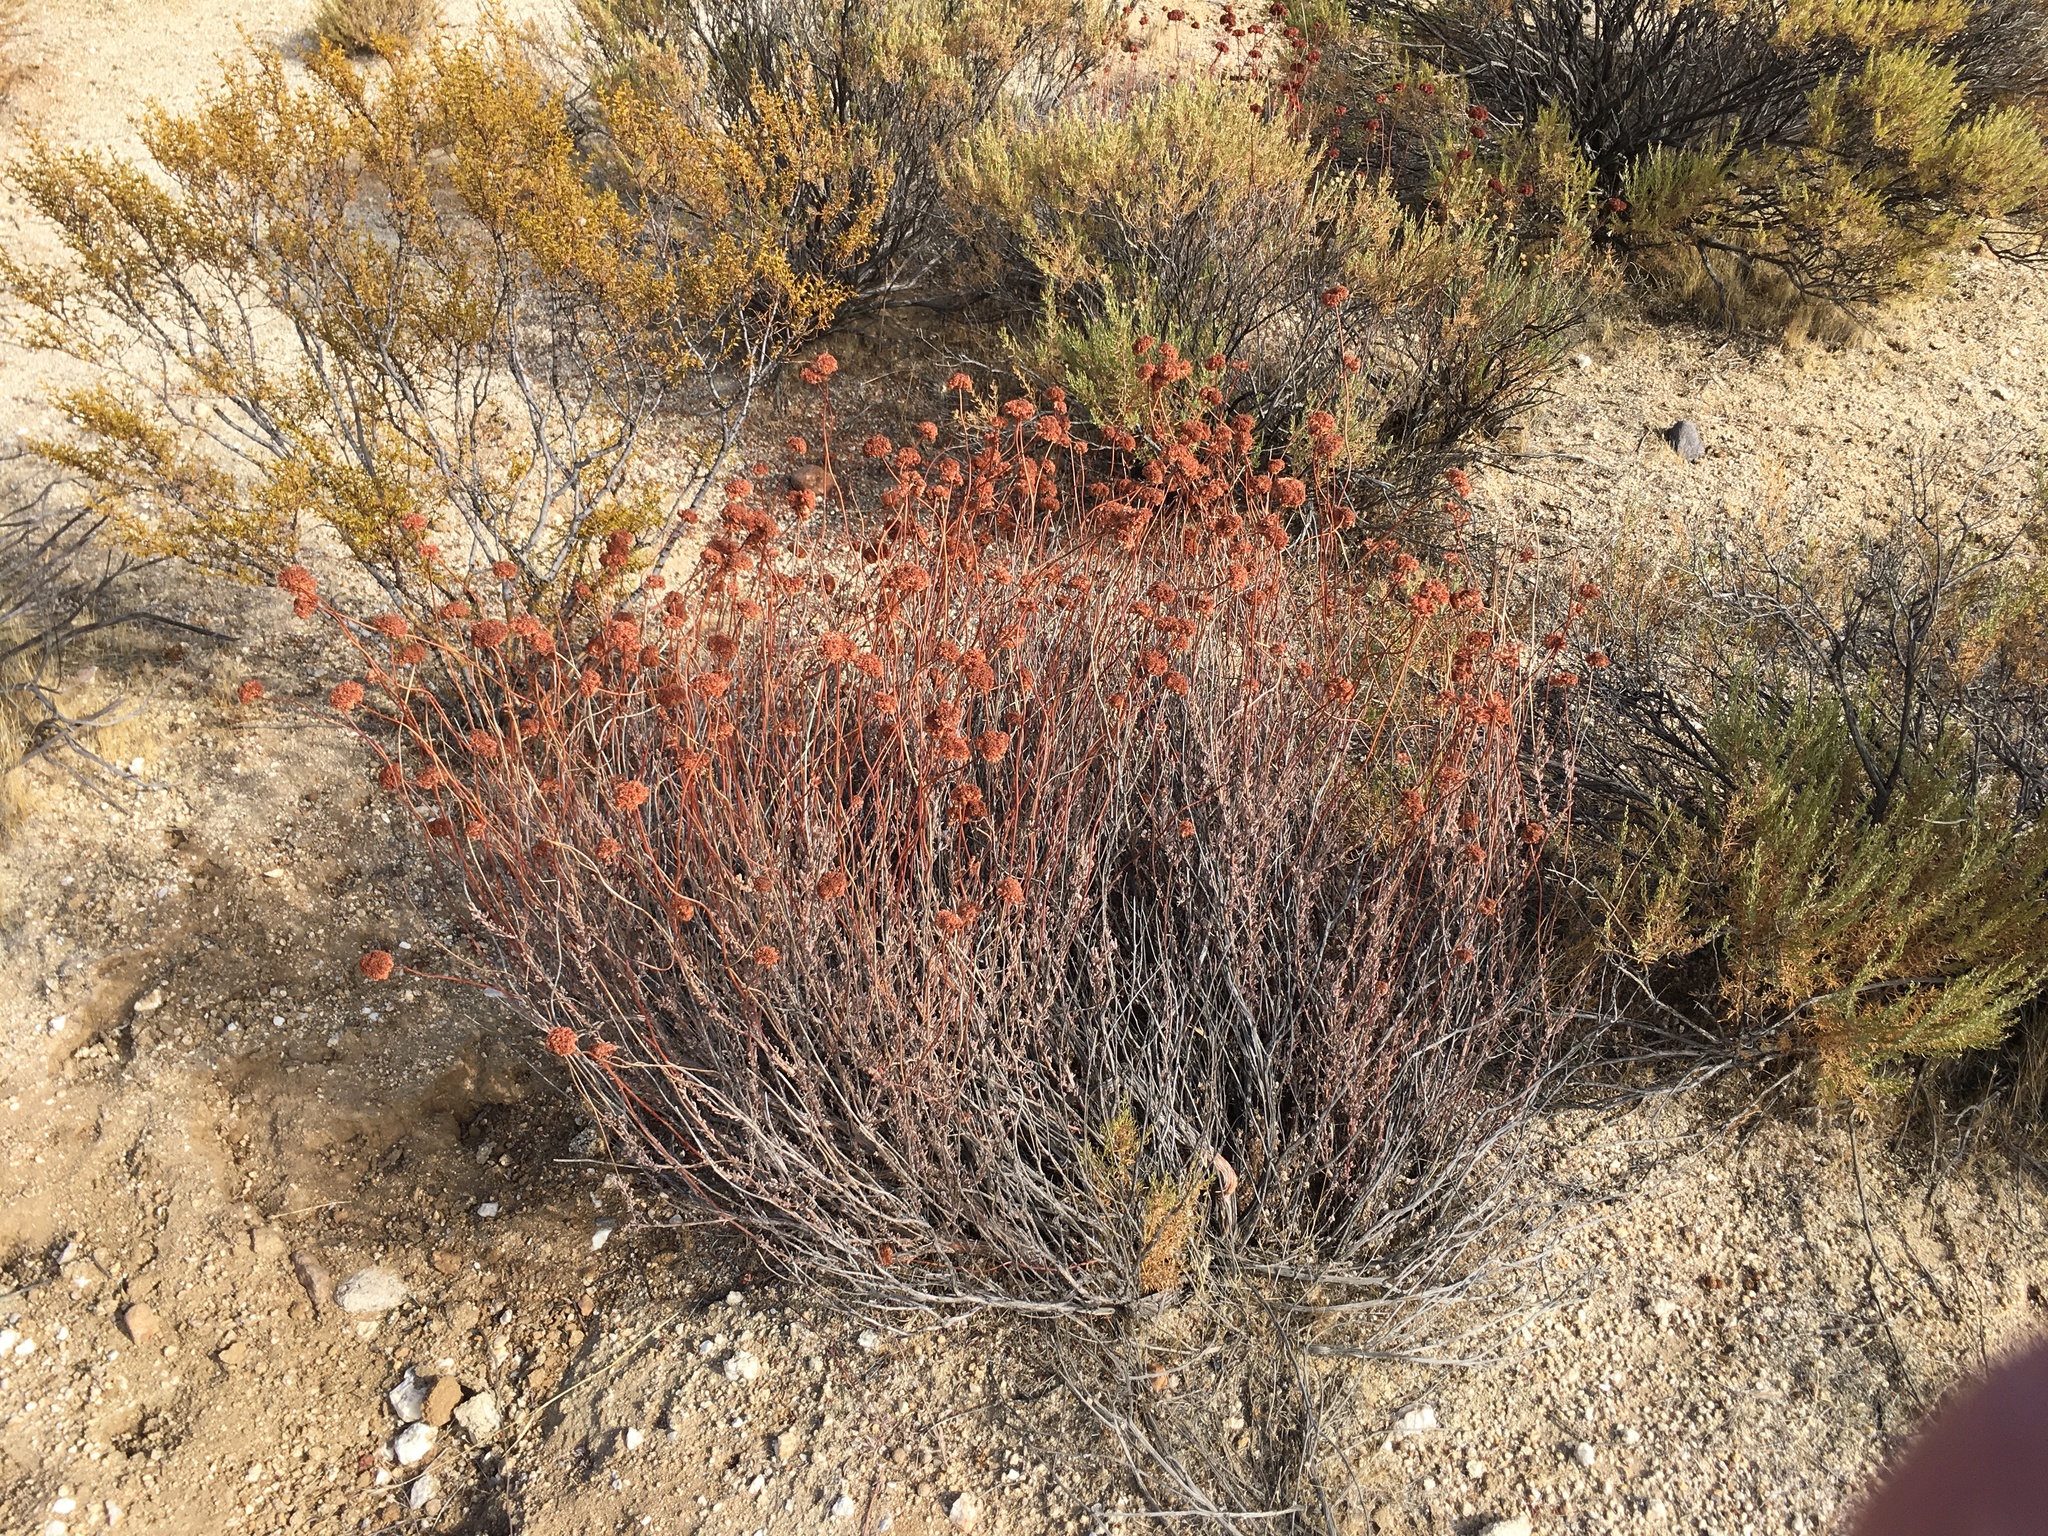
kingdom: Plantae
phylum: Tracheophyta
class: Magnoliopsida
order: Caryophyllales
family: Polygonaceae
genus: Eriogonum
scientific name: Eriogonum fasciculatum
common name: California wild buckwheat
